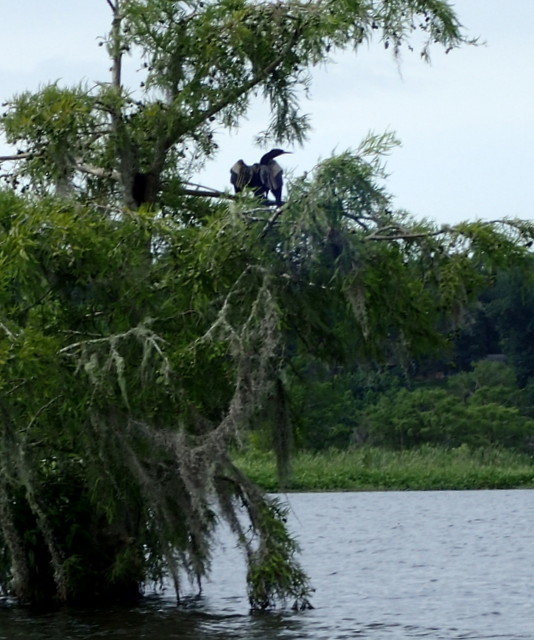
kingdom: Animalia
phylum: Chordata
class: Aves
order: Suliformes
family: Anhingidae
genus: Anhinga
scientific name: Anhinga anhinga
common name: Anhinga
